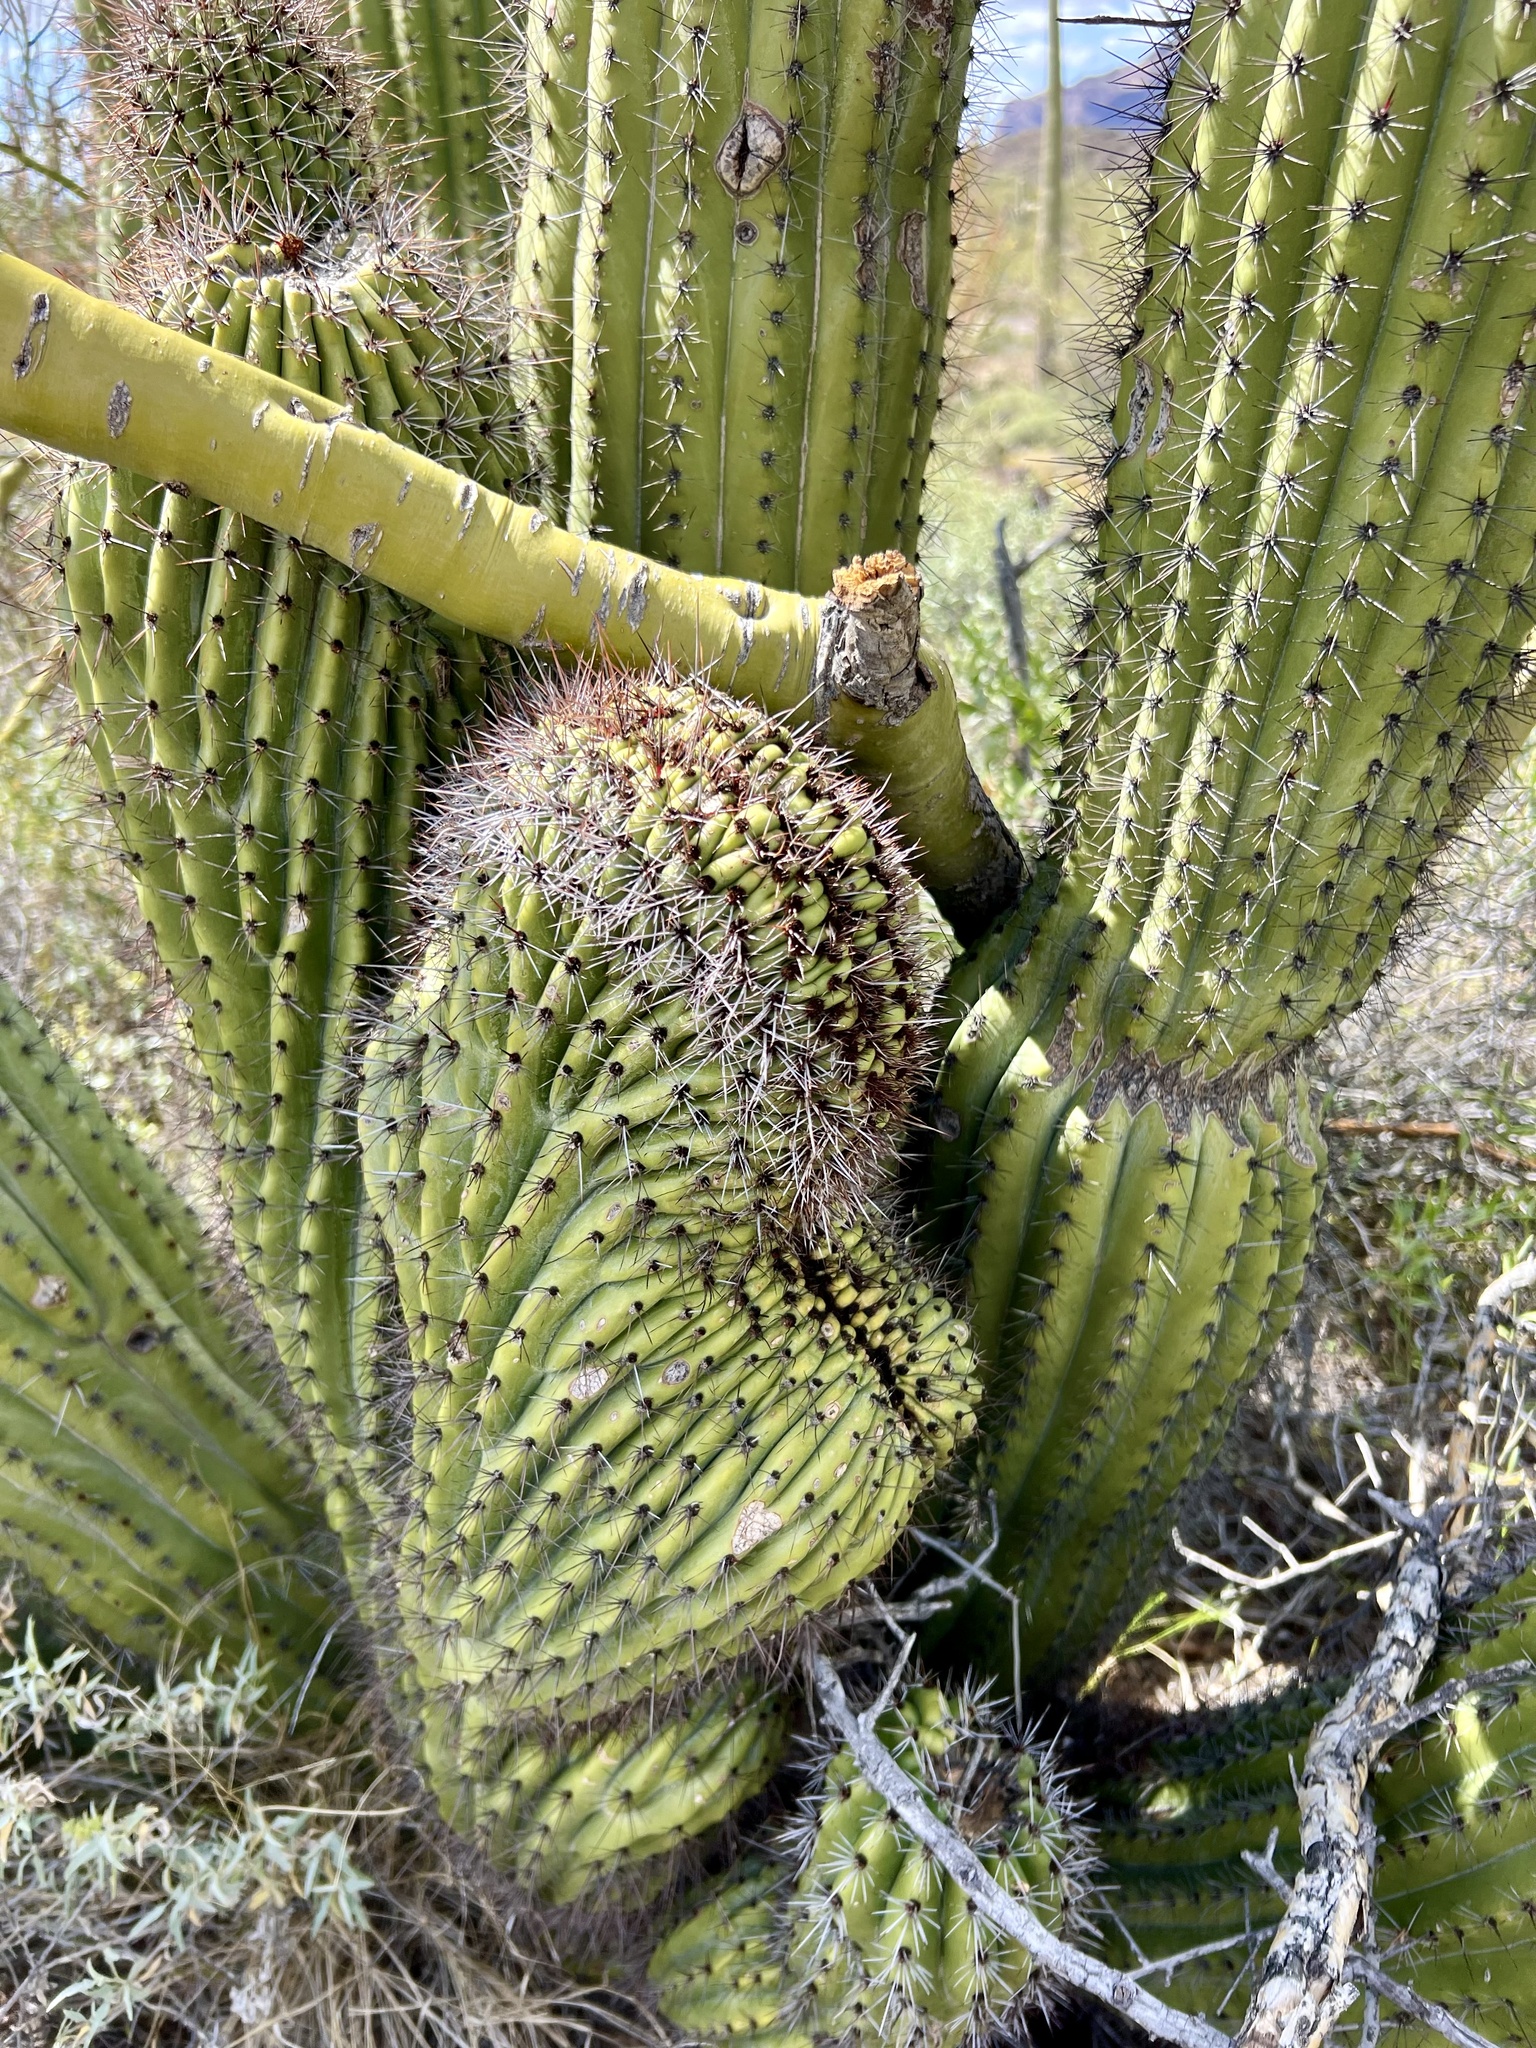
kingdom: Plantae
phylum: Tracheophyta
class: Magnoliopsida
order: Caryophyllales
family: Cactaceae
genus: Stenocereus
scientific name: Stenocereus thurberi
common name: Organ pipe cactus
